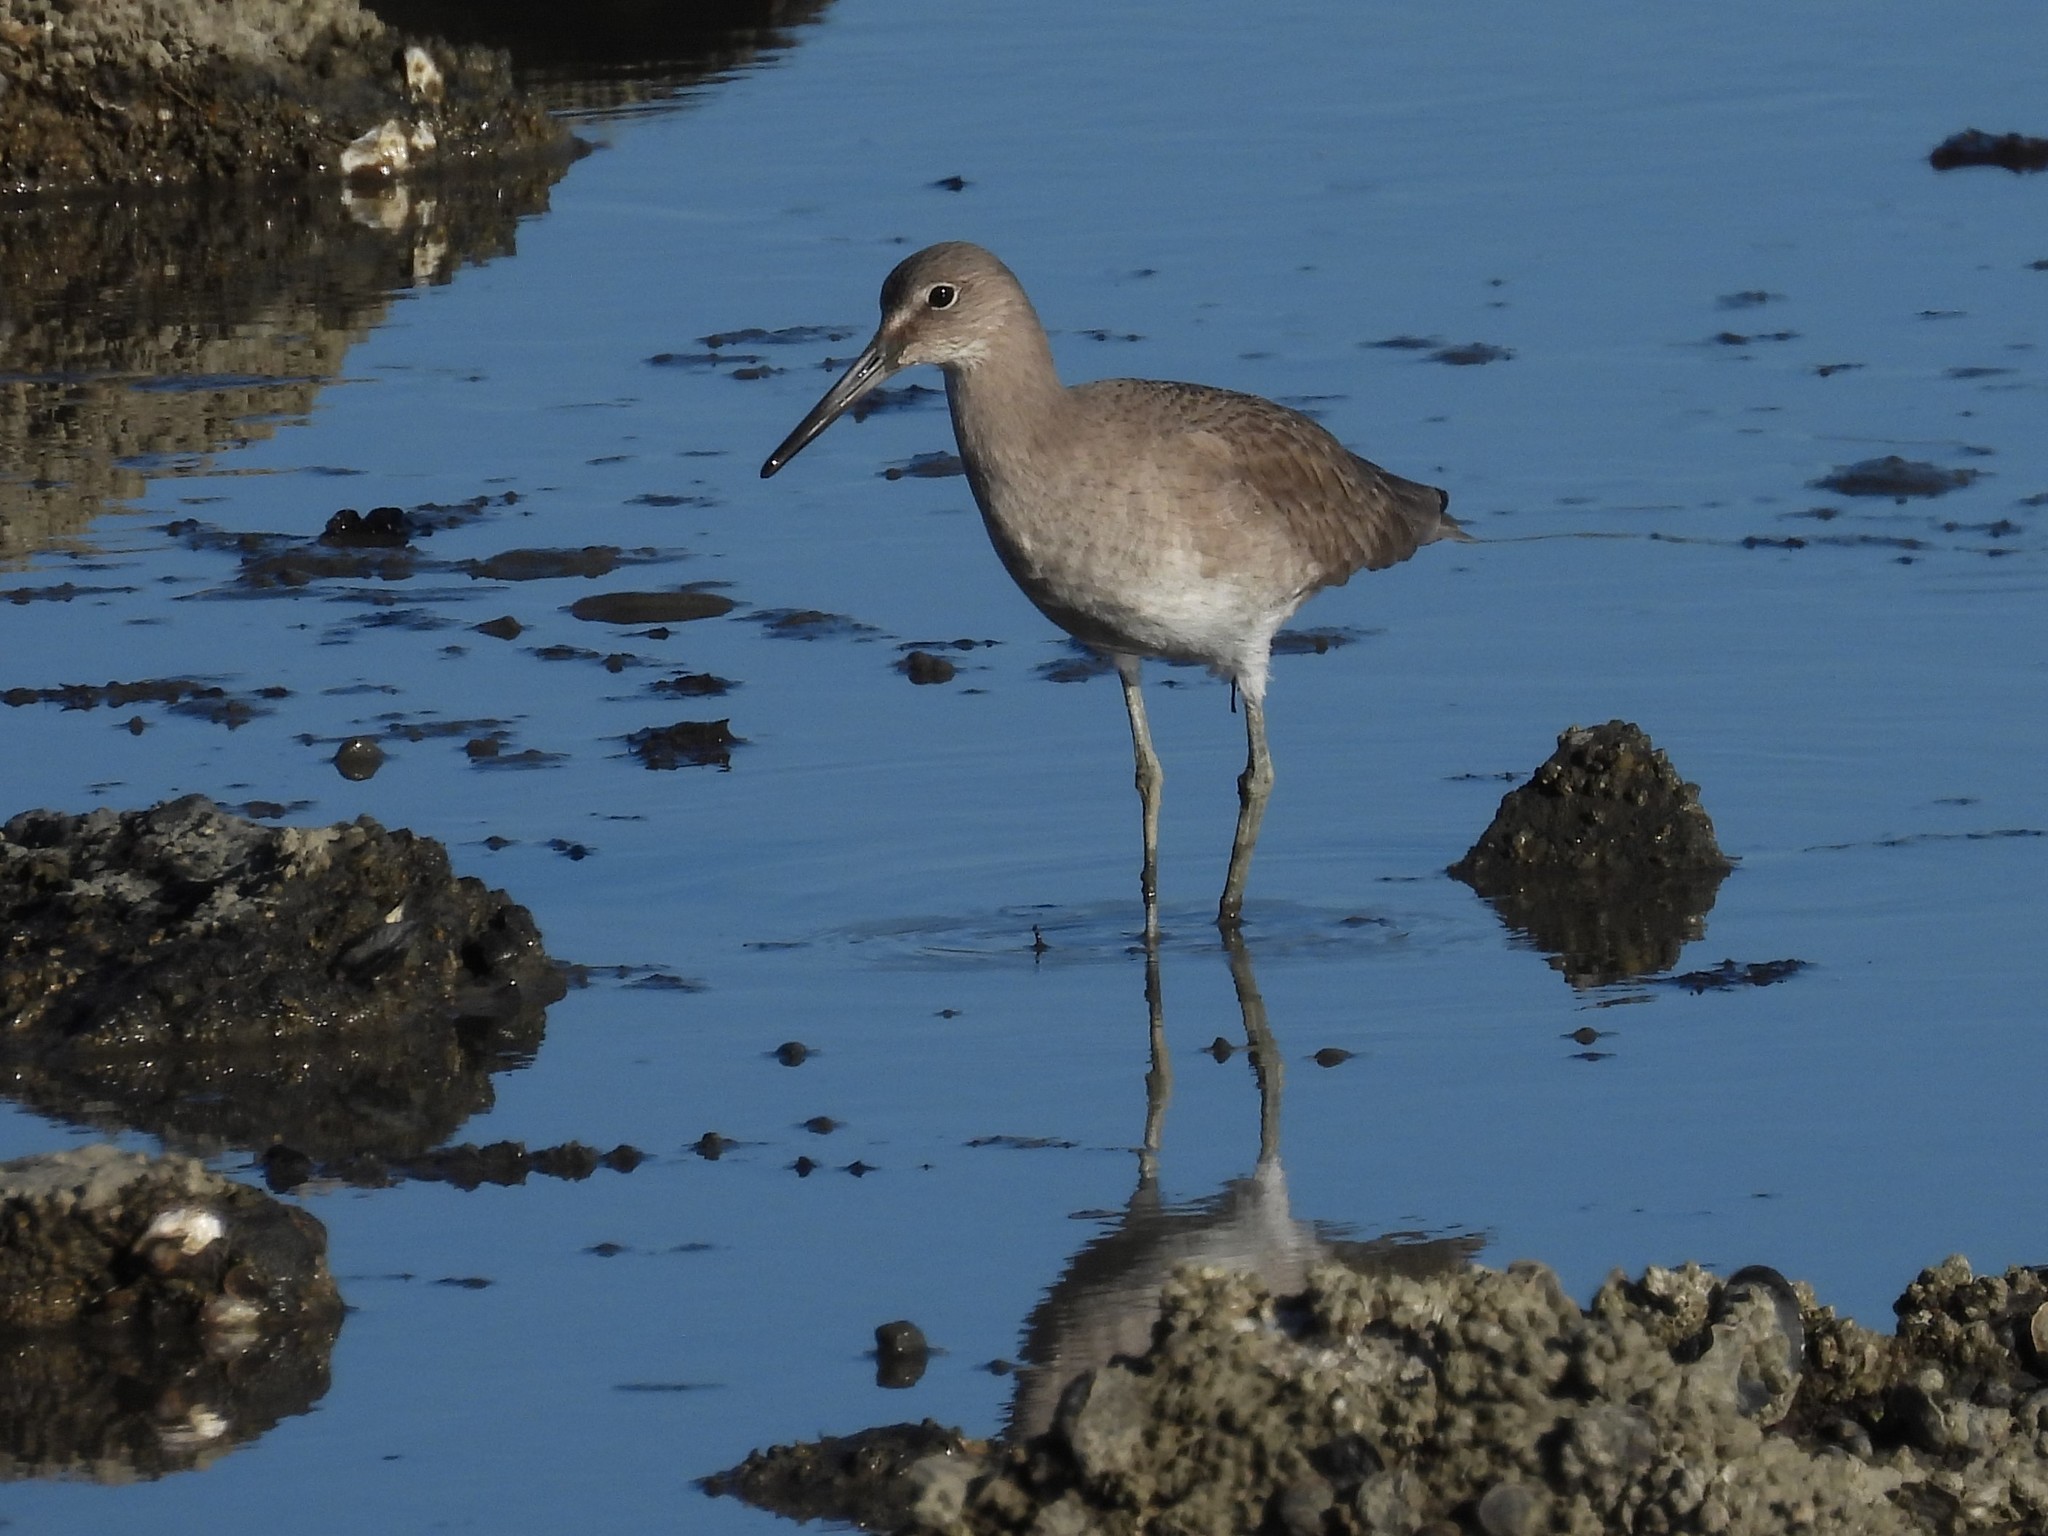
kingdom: Animalia
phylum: Chordata
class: Aves
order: Charadriiformes
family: Scolopacidae
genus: Tringa
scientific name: Tringa semipalmata
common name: Willet
